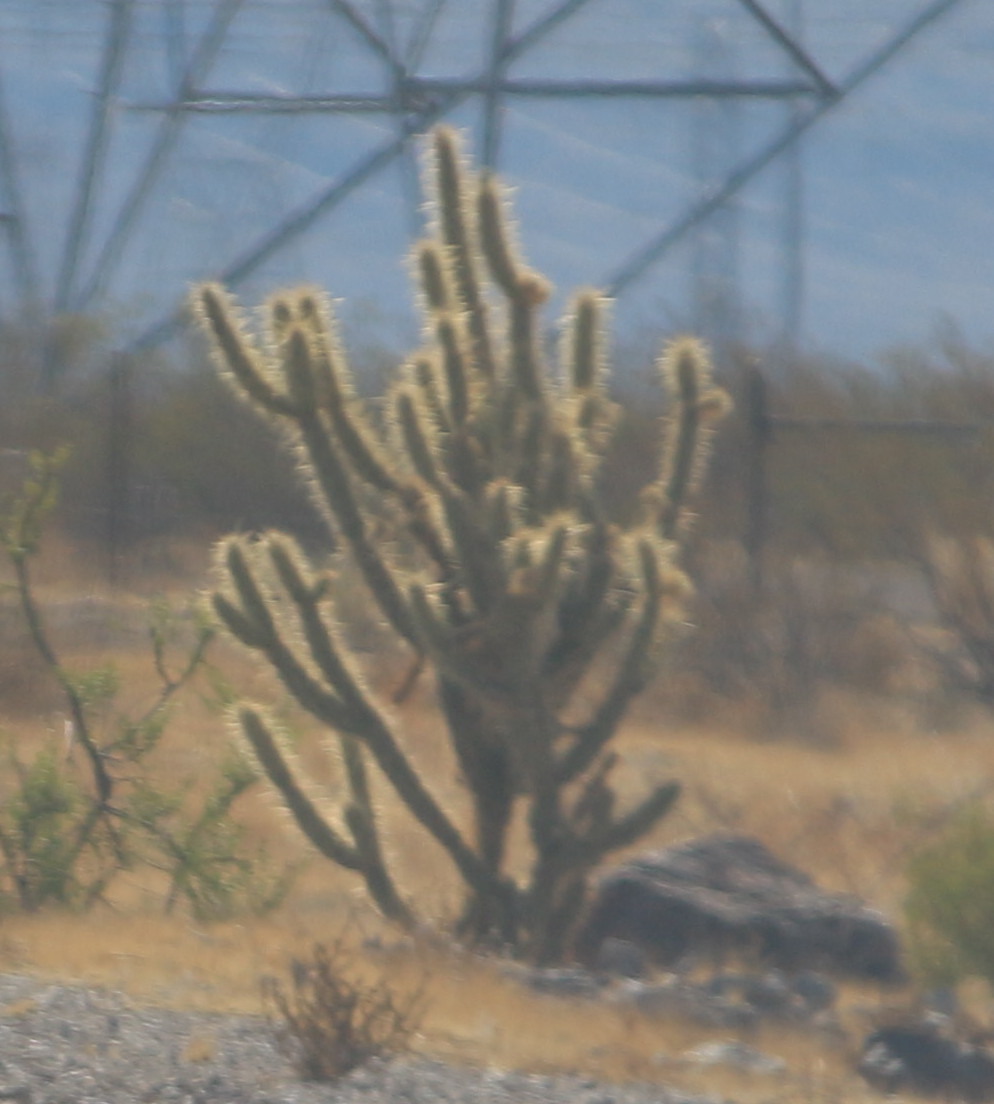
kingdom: Plantae
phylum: Tracheophyta
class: Magnoliopsida
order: Caryophyllales
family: Cactaceae
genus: Cylindropuntia
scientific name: Cylindropuntia acanthocarpa
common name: Buckhorn cholla
